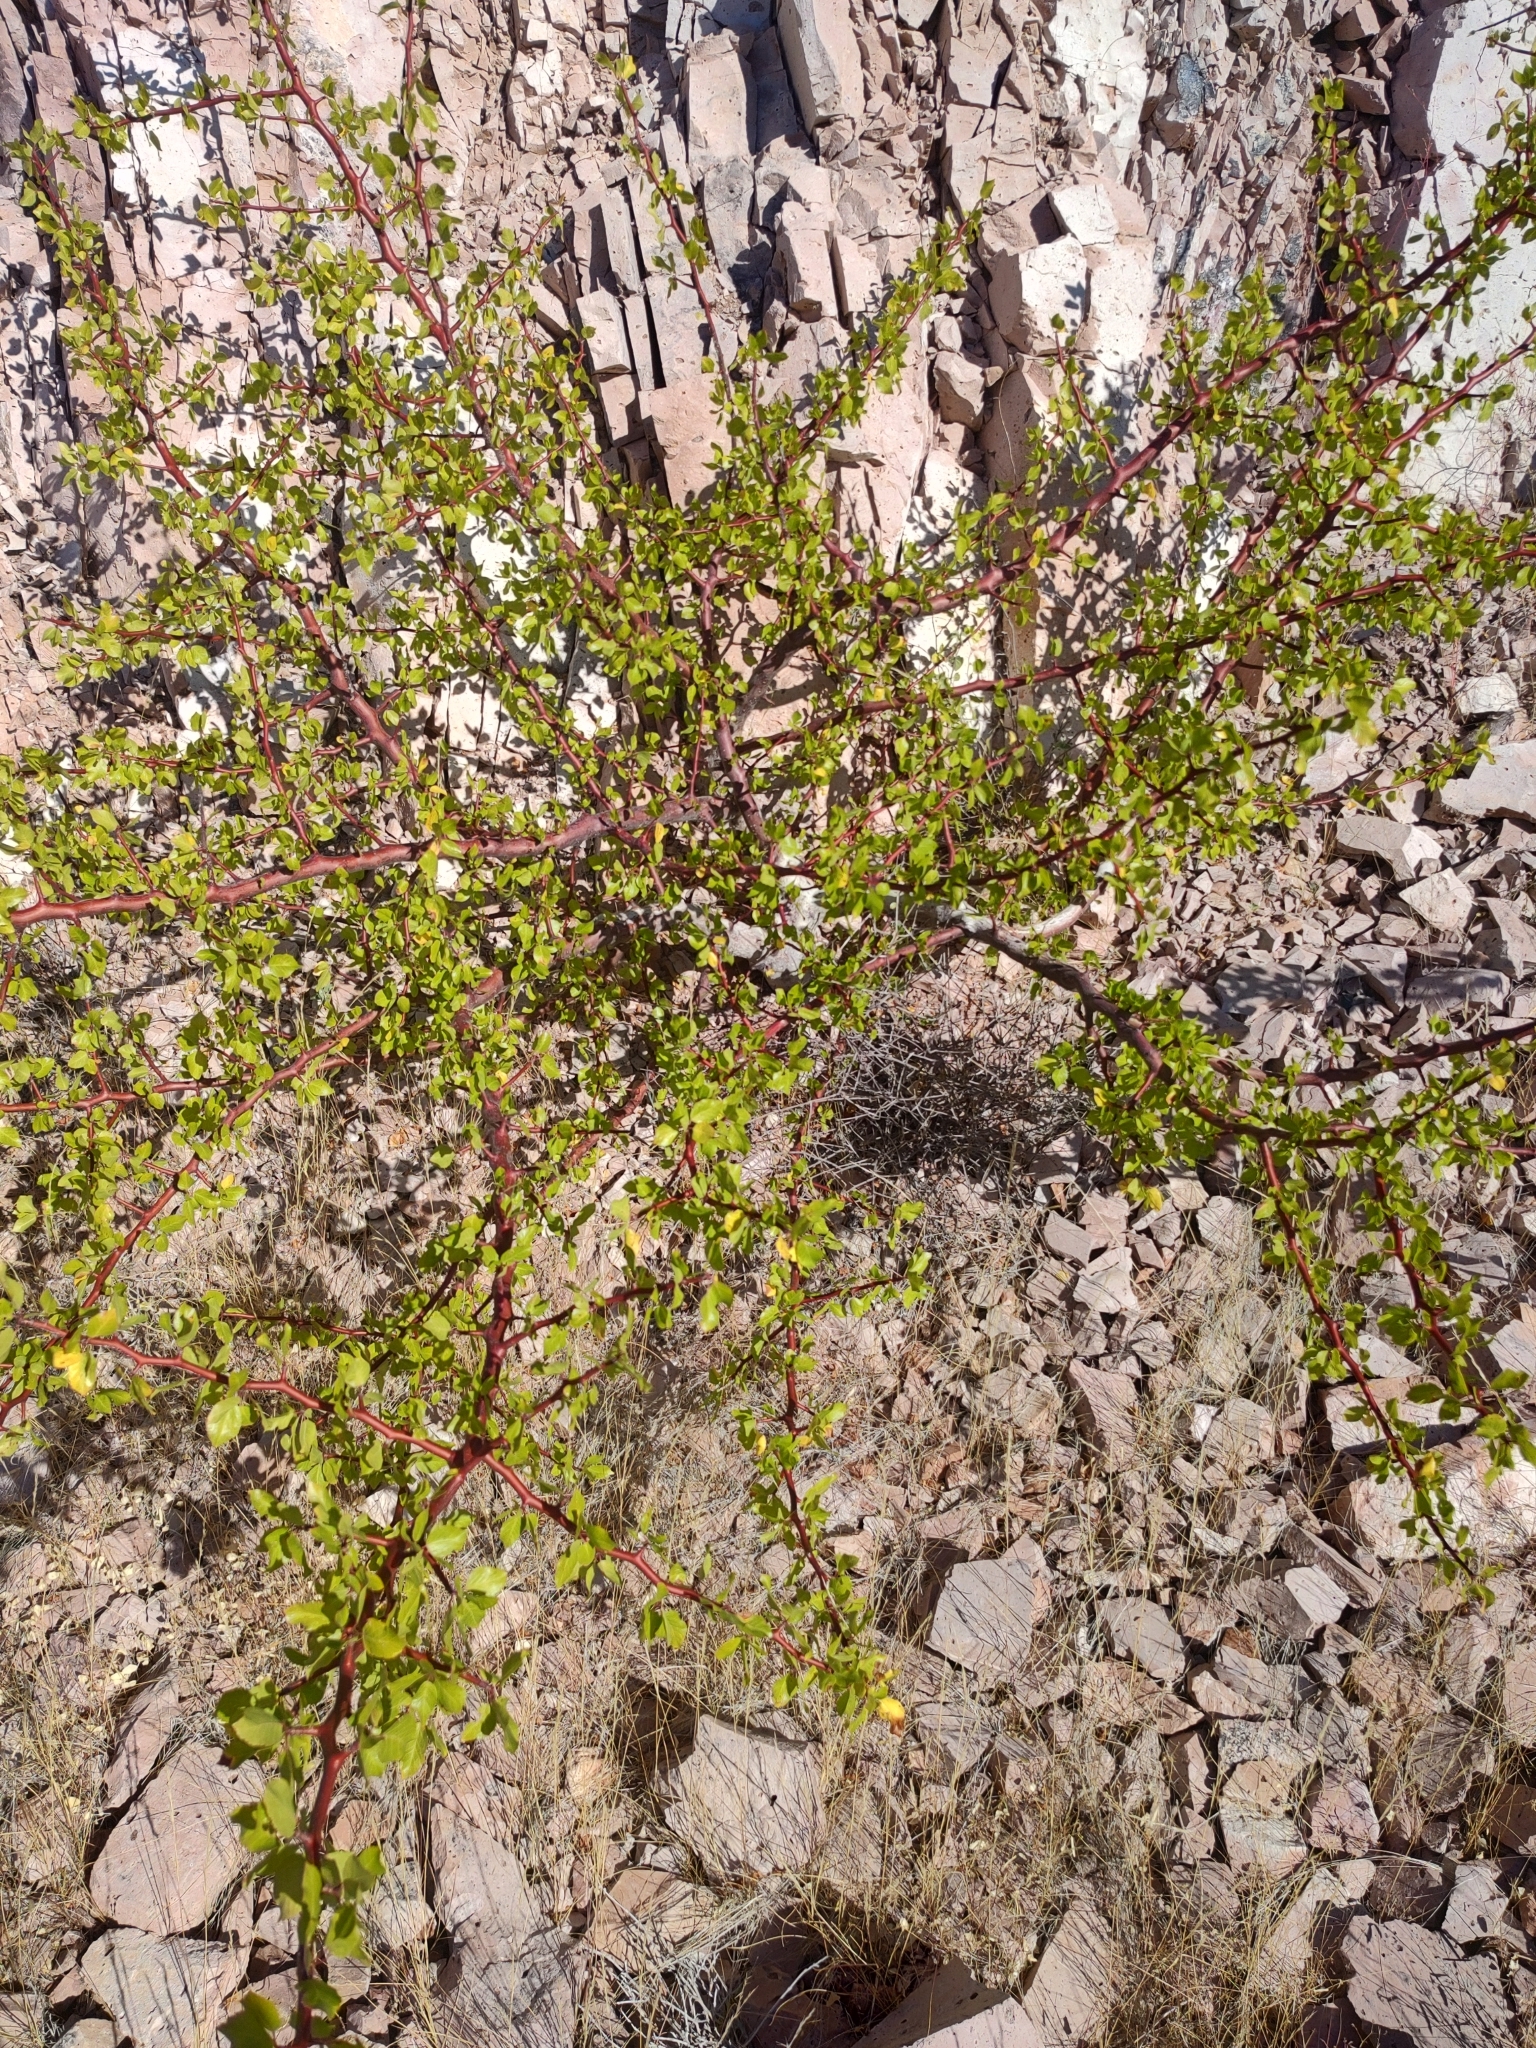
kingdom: Plantae
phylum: Tracheophyta
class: Magnoliopsida
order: Sapindales
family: Burseraceae
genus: Bursera
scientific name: Bursera epinnata
